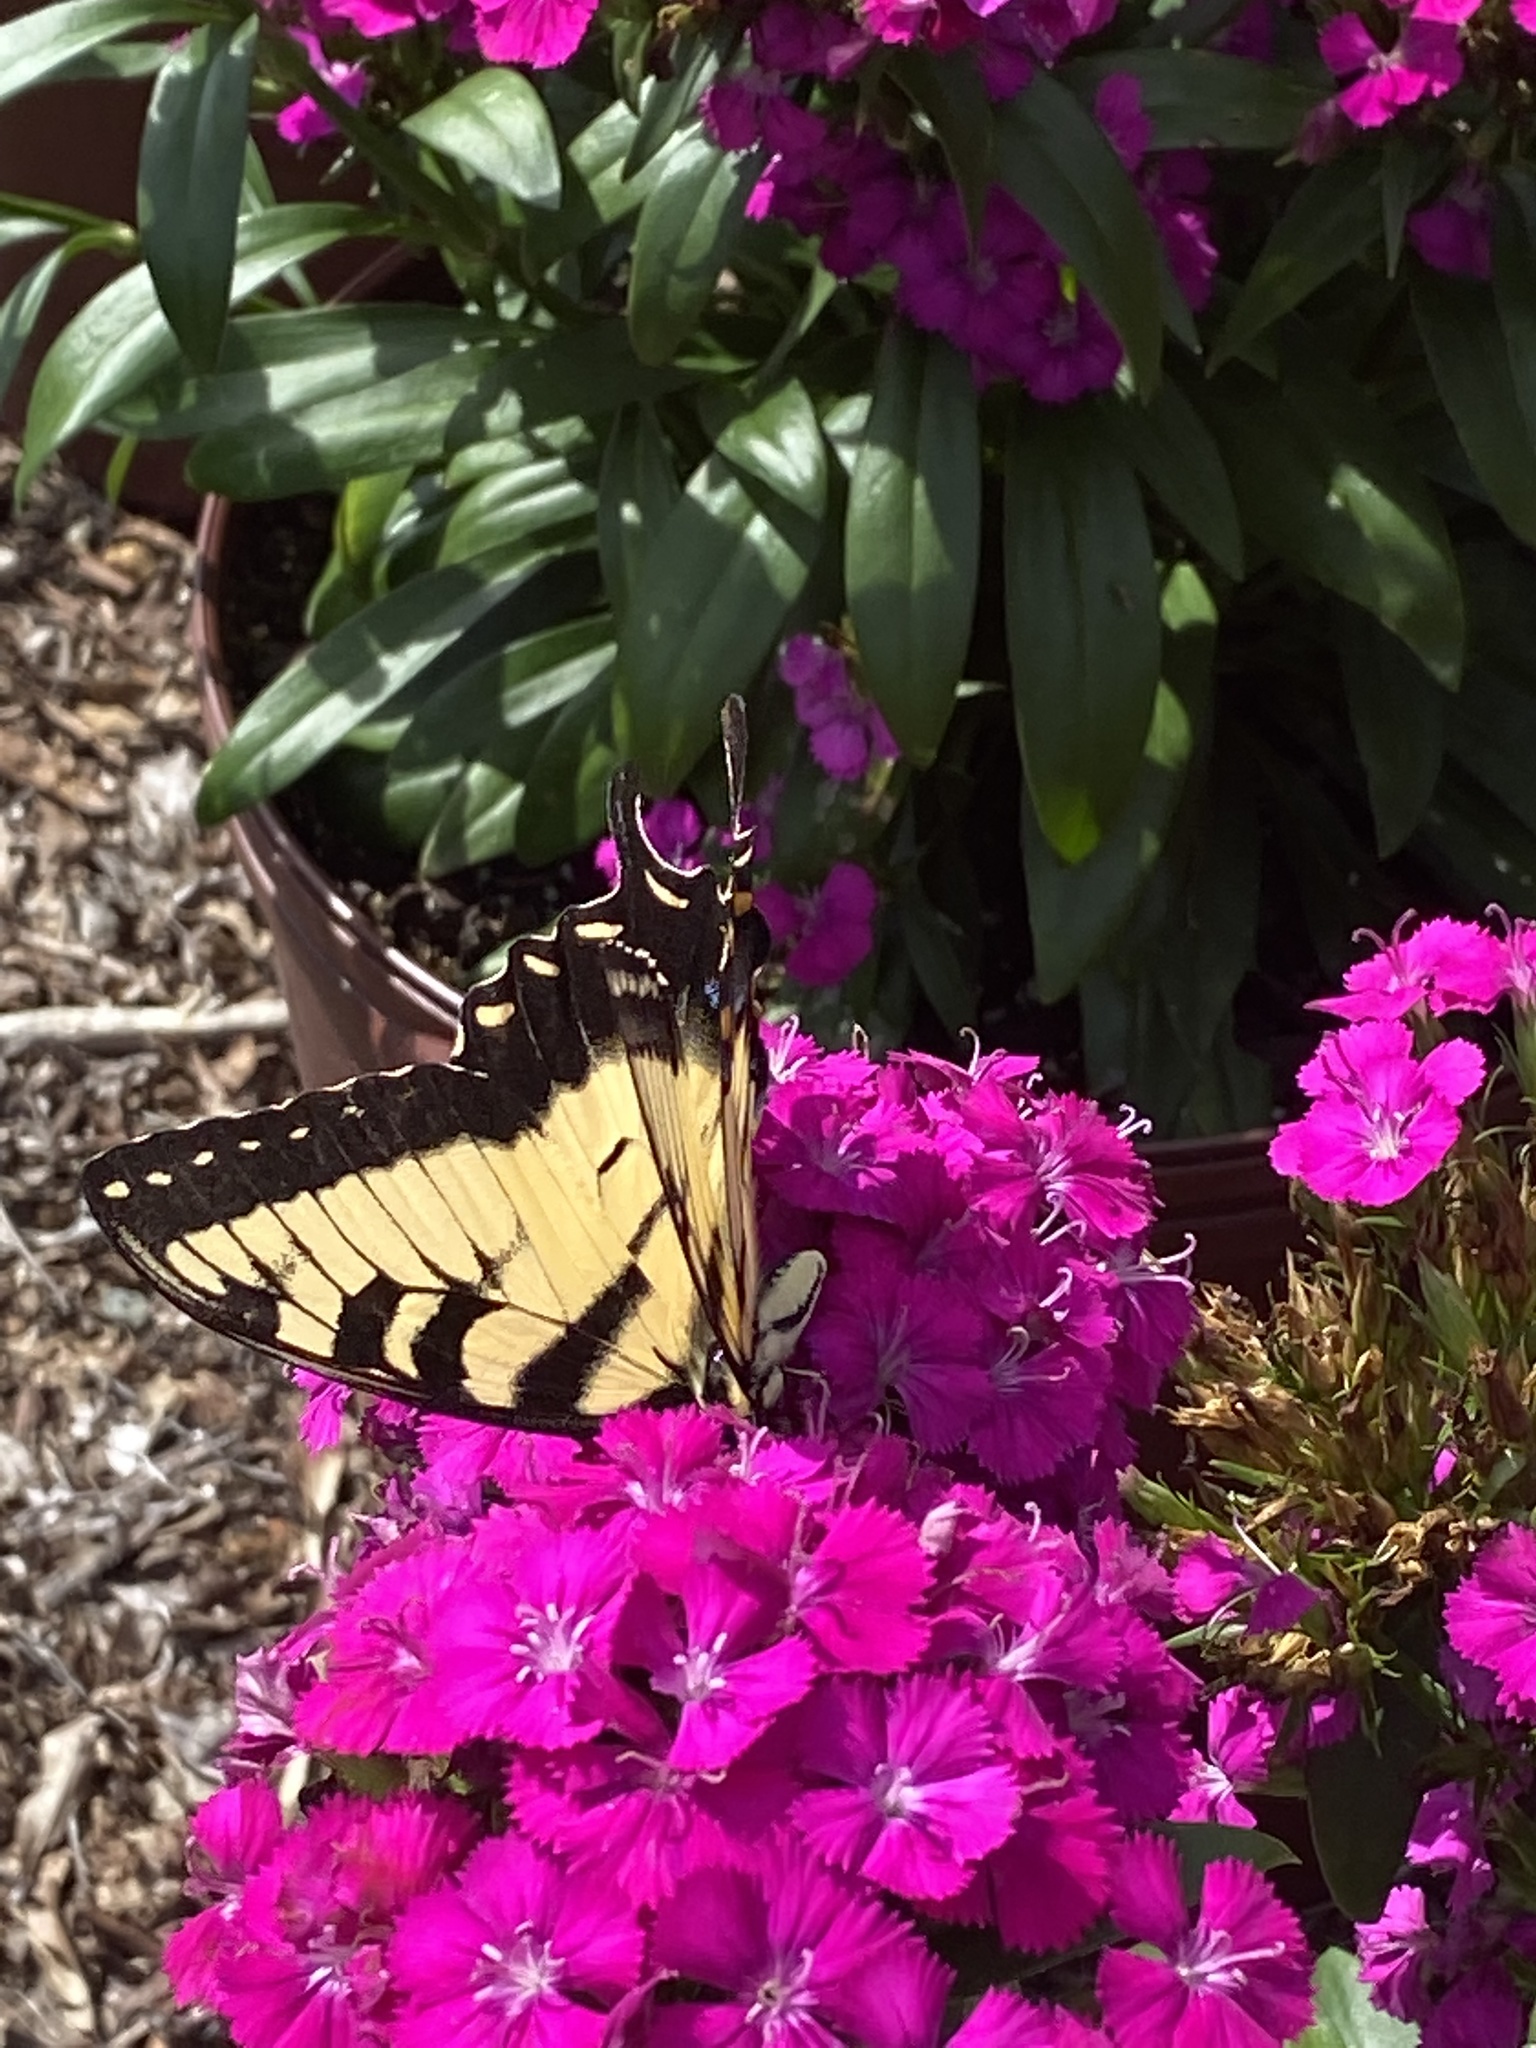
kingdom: Animalia
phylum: Arthropoda
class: Insecta
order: Lepidoptera
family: Papilionidae
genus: Papilio
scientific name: Papilio glaucus
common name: Tiger swallowtail
